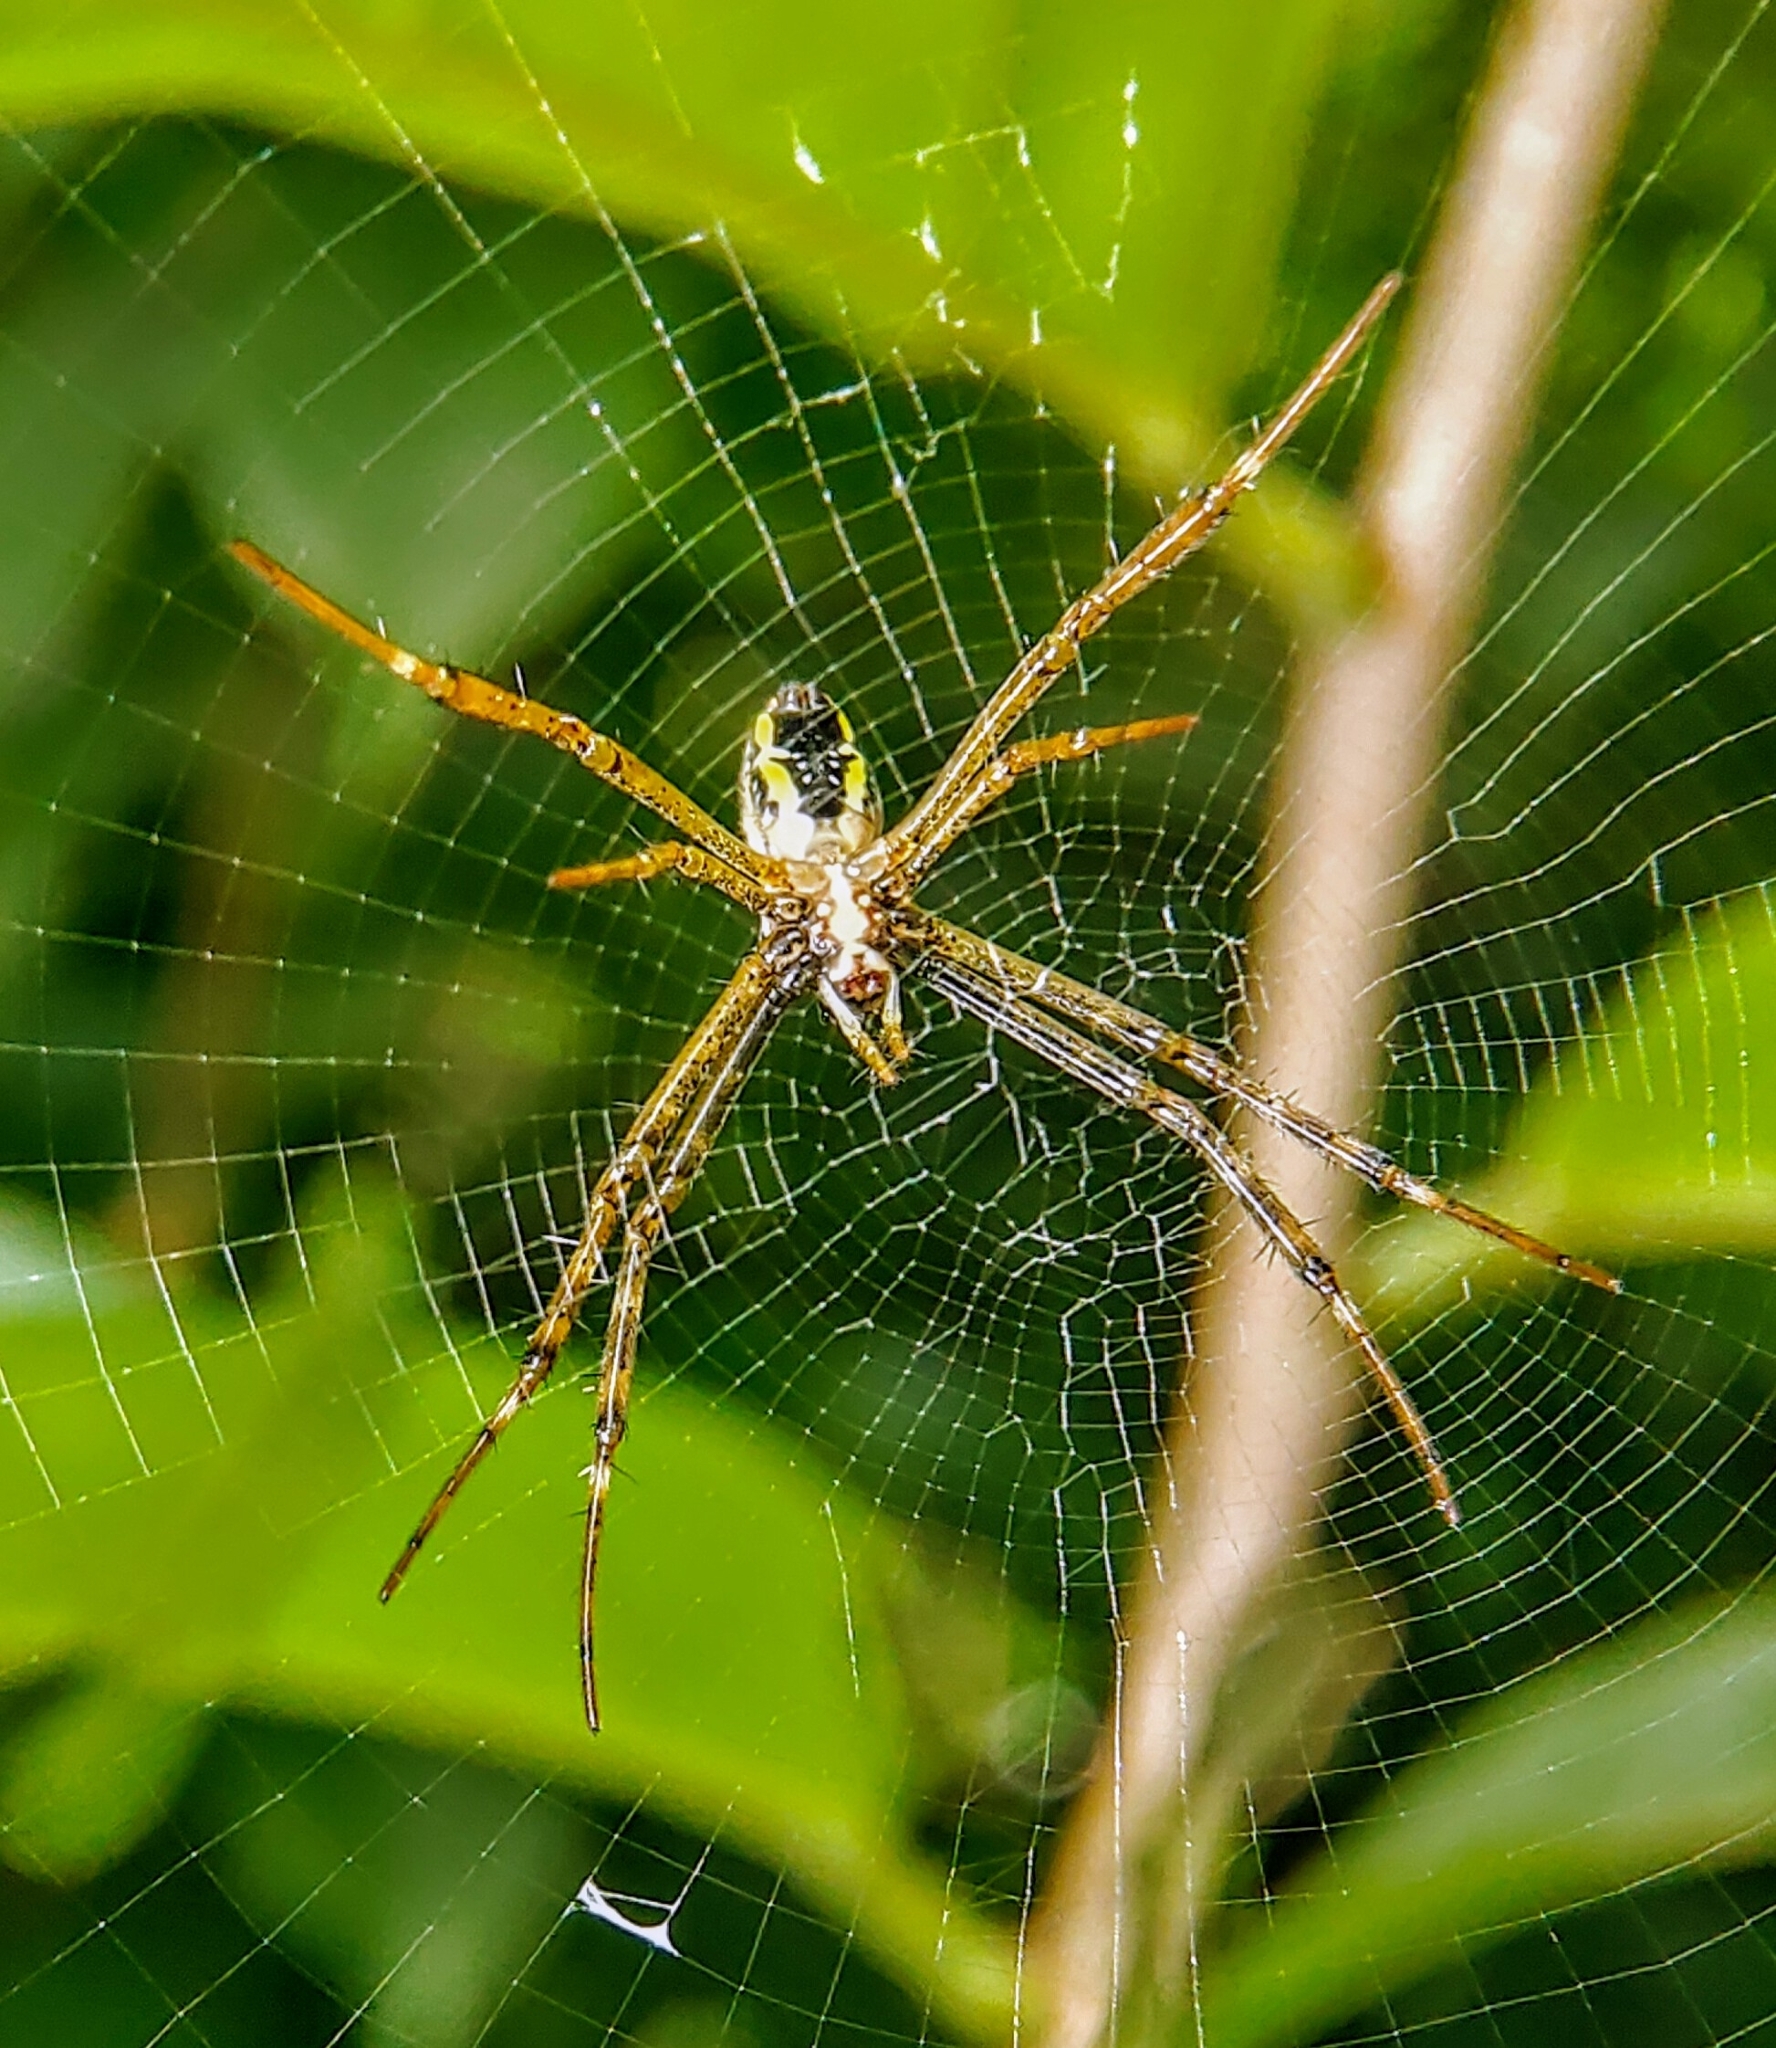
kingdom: Animalia
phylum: Arthropoda
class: Arachnida
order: Araneae
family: Araneidae
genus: Argiope
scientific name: Argiope dang
